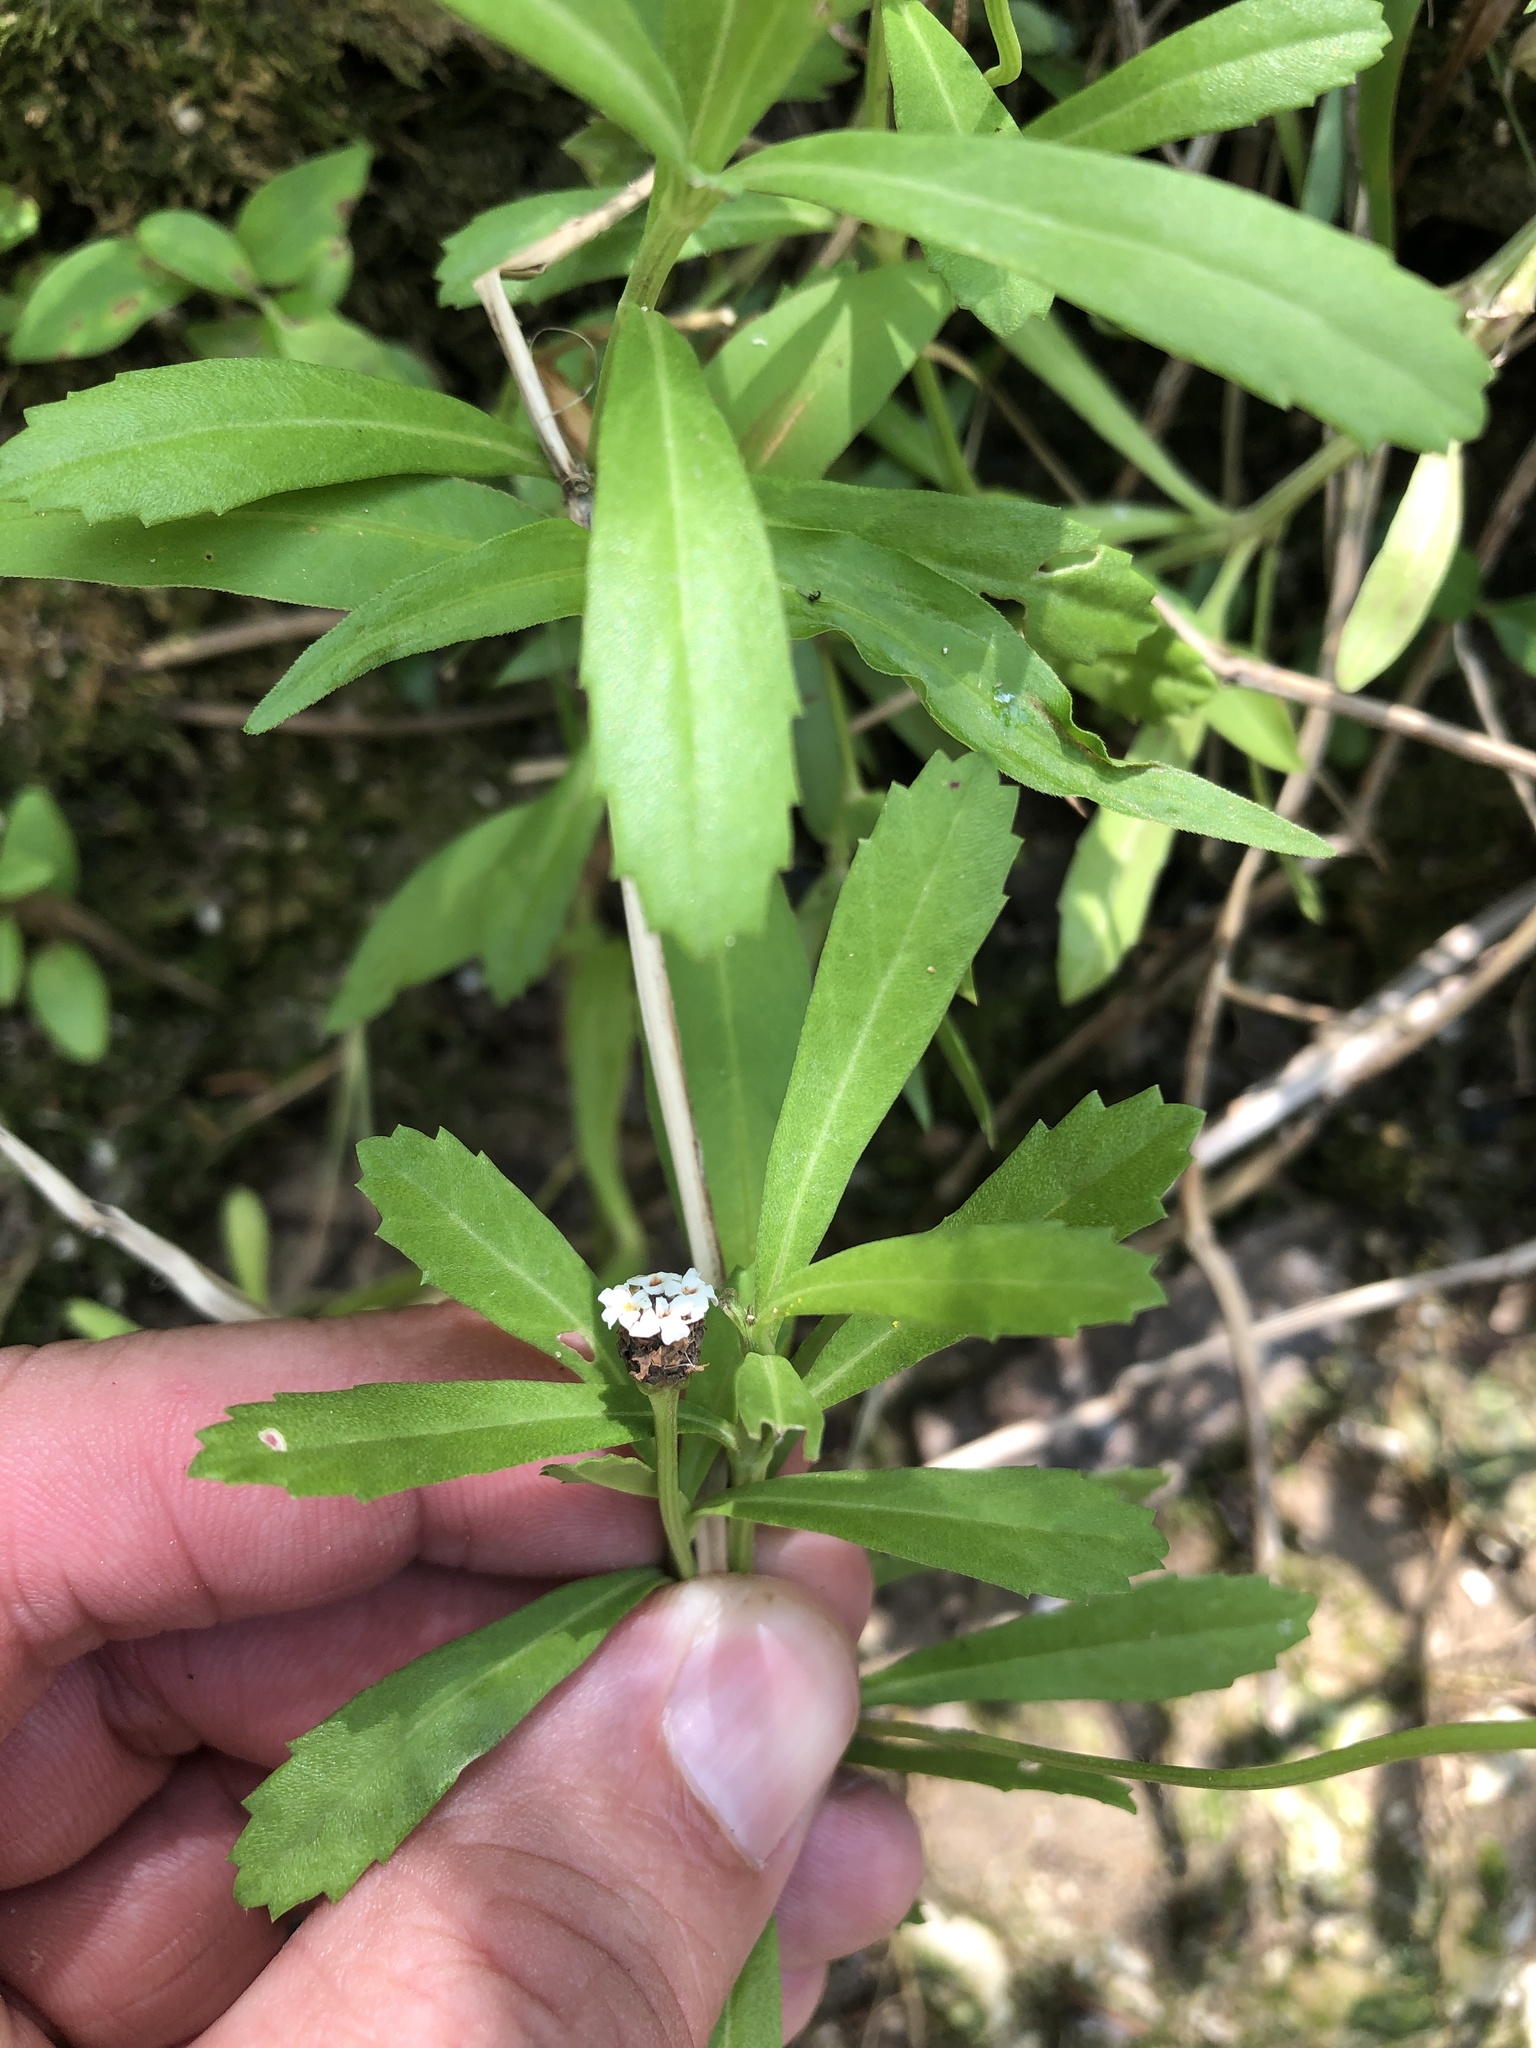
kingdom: Plantae
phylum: Tracheophyta
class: Magnoliopsida
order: Lamiales
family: Verbenaceae
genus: Phyla
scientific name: Phyla nodiflora
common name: Frogfruit
